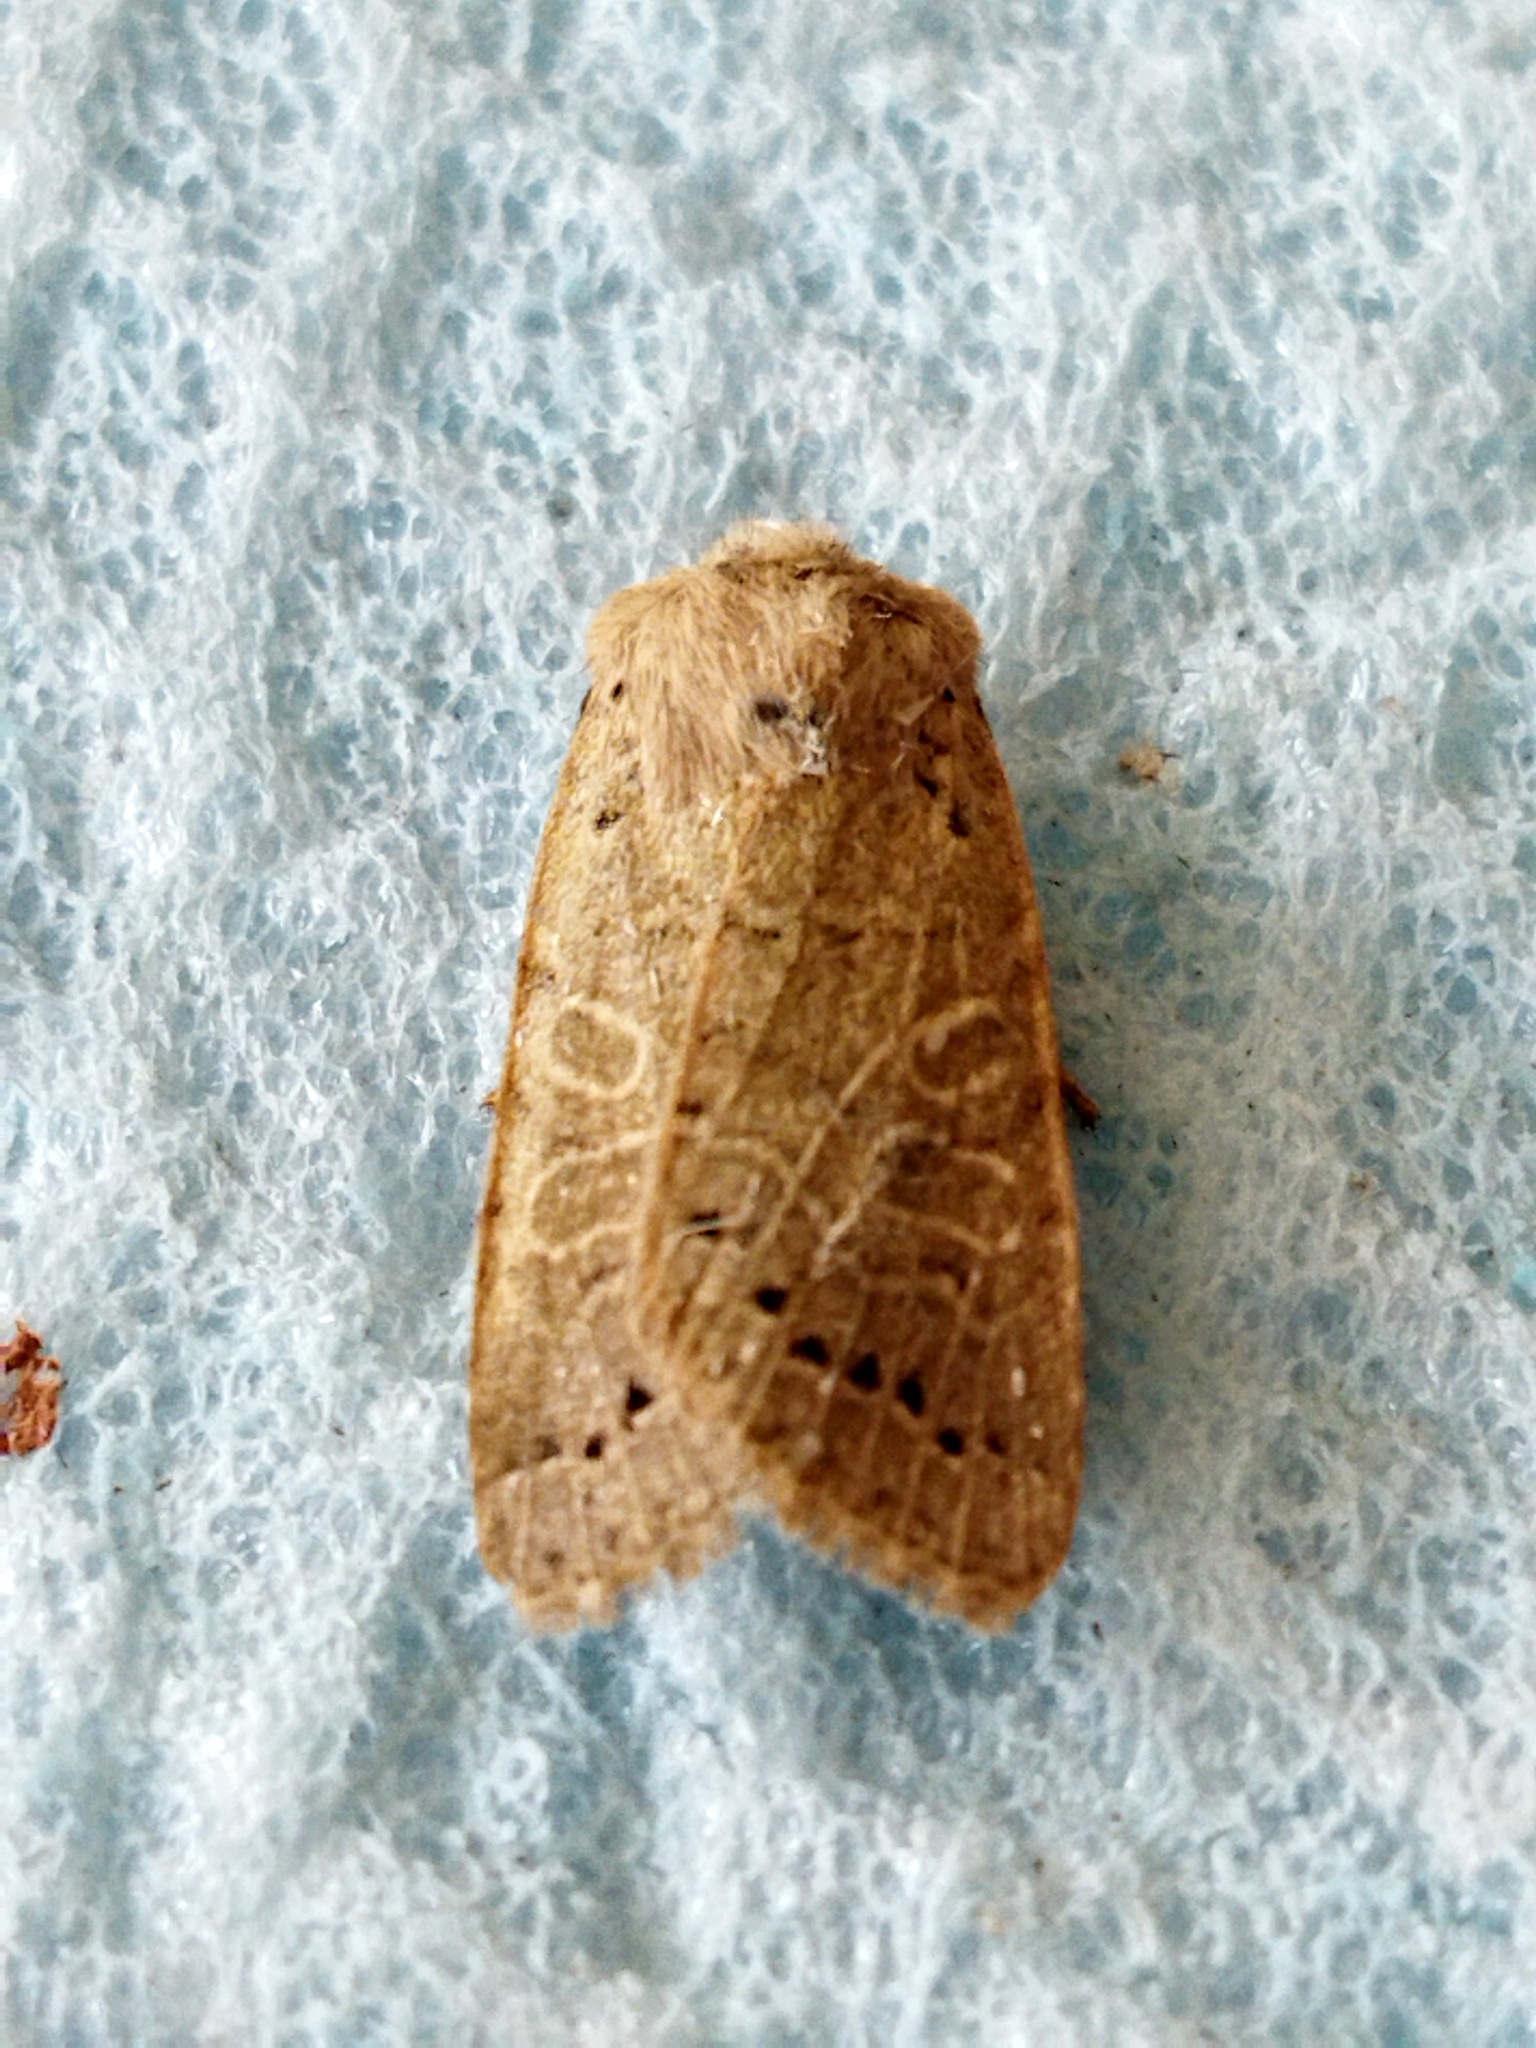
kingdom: Animalia
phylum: Arthropoda
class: Insecta
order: Lepidoptera
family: Noctuidae
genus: Agrochola
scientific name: Agrochola osthelderi
